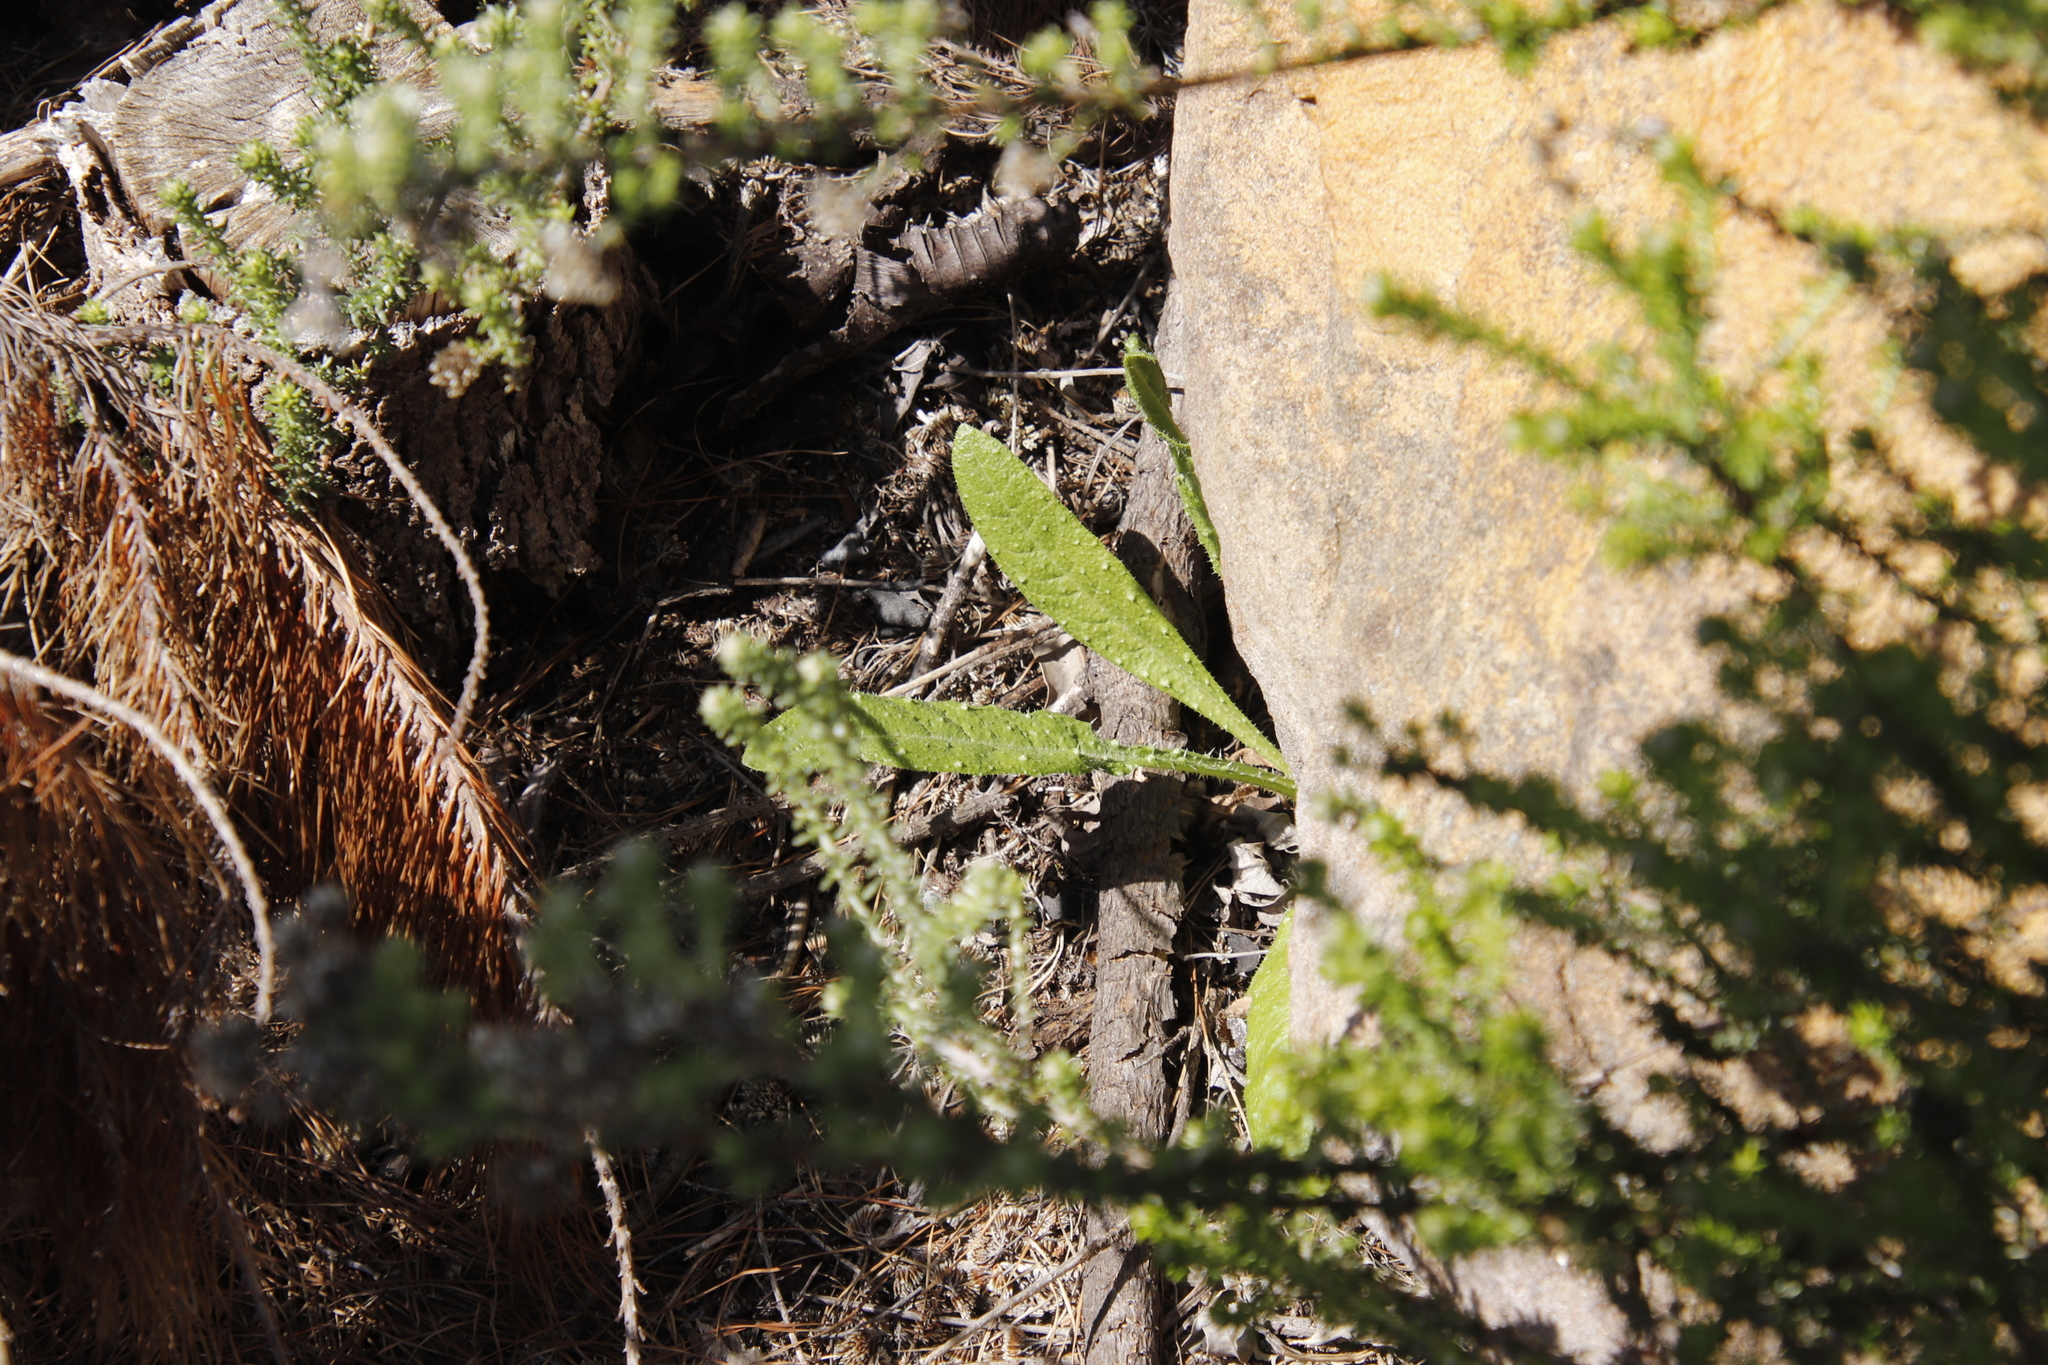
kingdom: Plantae
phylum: Tracheophyta
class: Magnoliopsida
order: Asterales
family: Asteraceae
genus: Helminthotheca
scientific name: Helminthotheca echioides
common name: Ox-tongue
